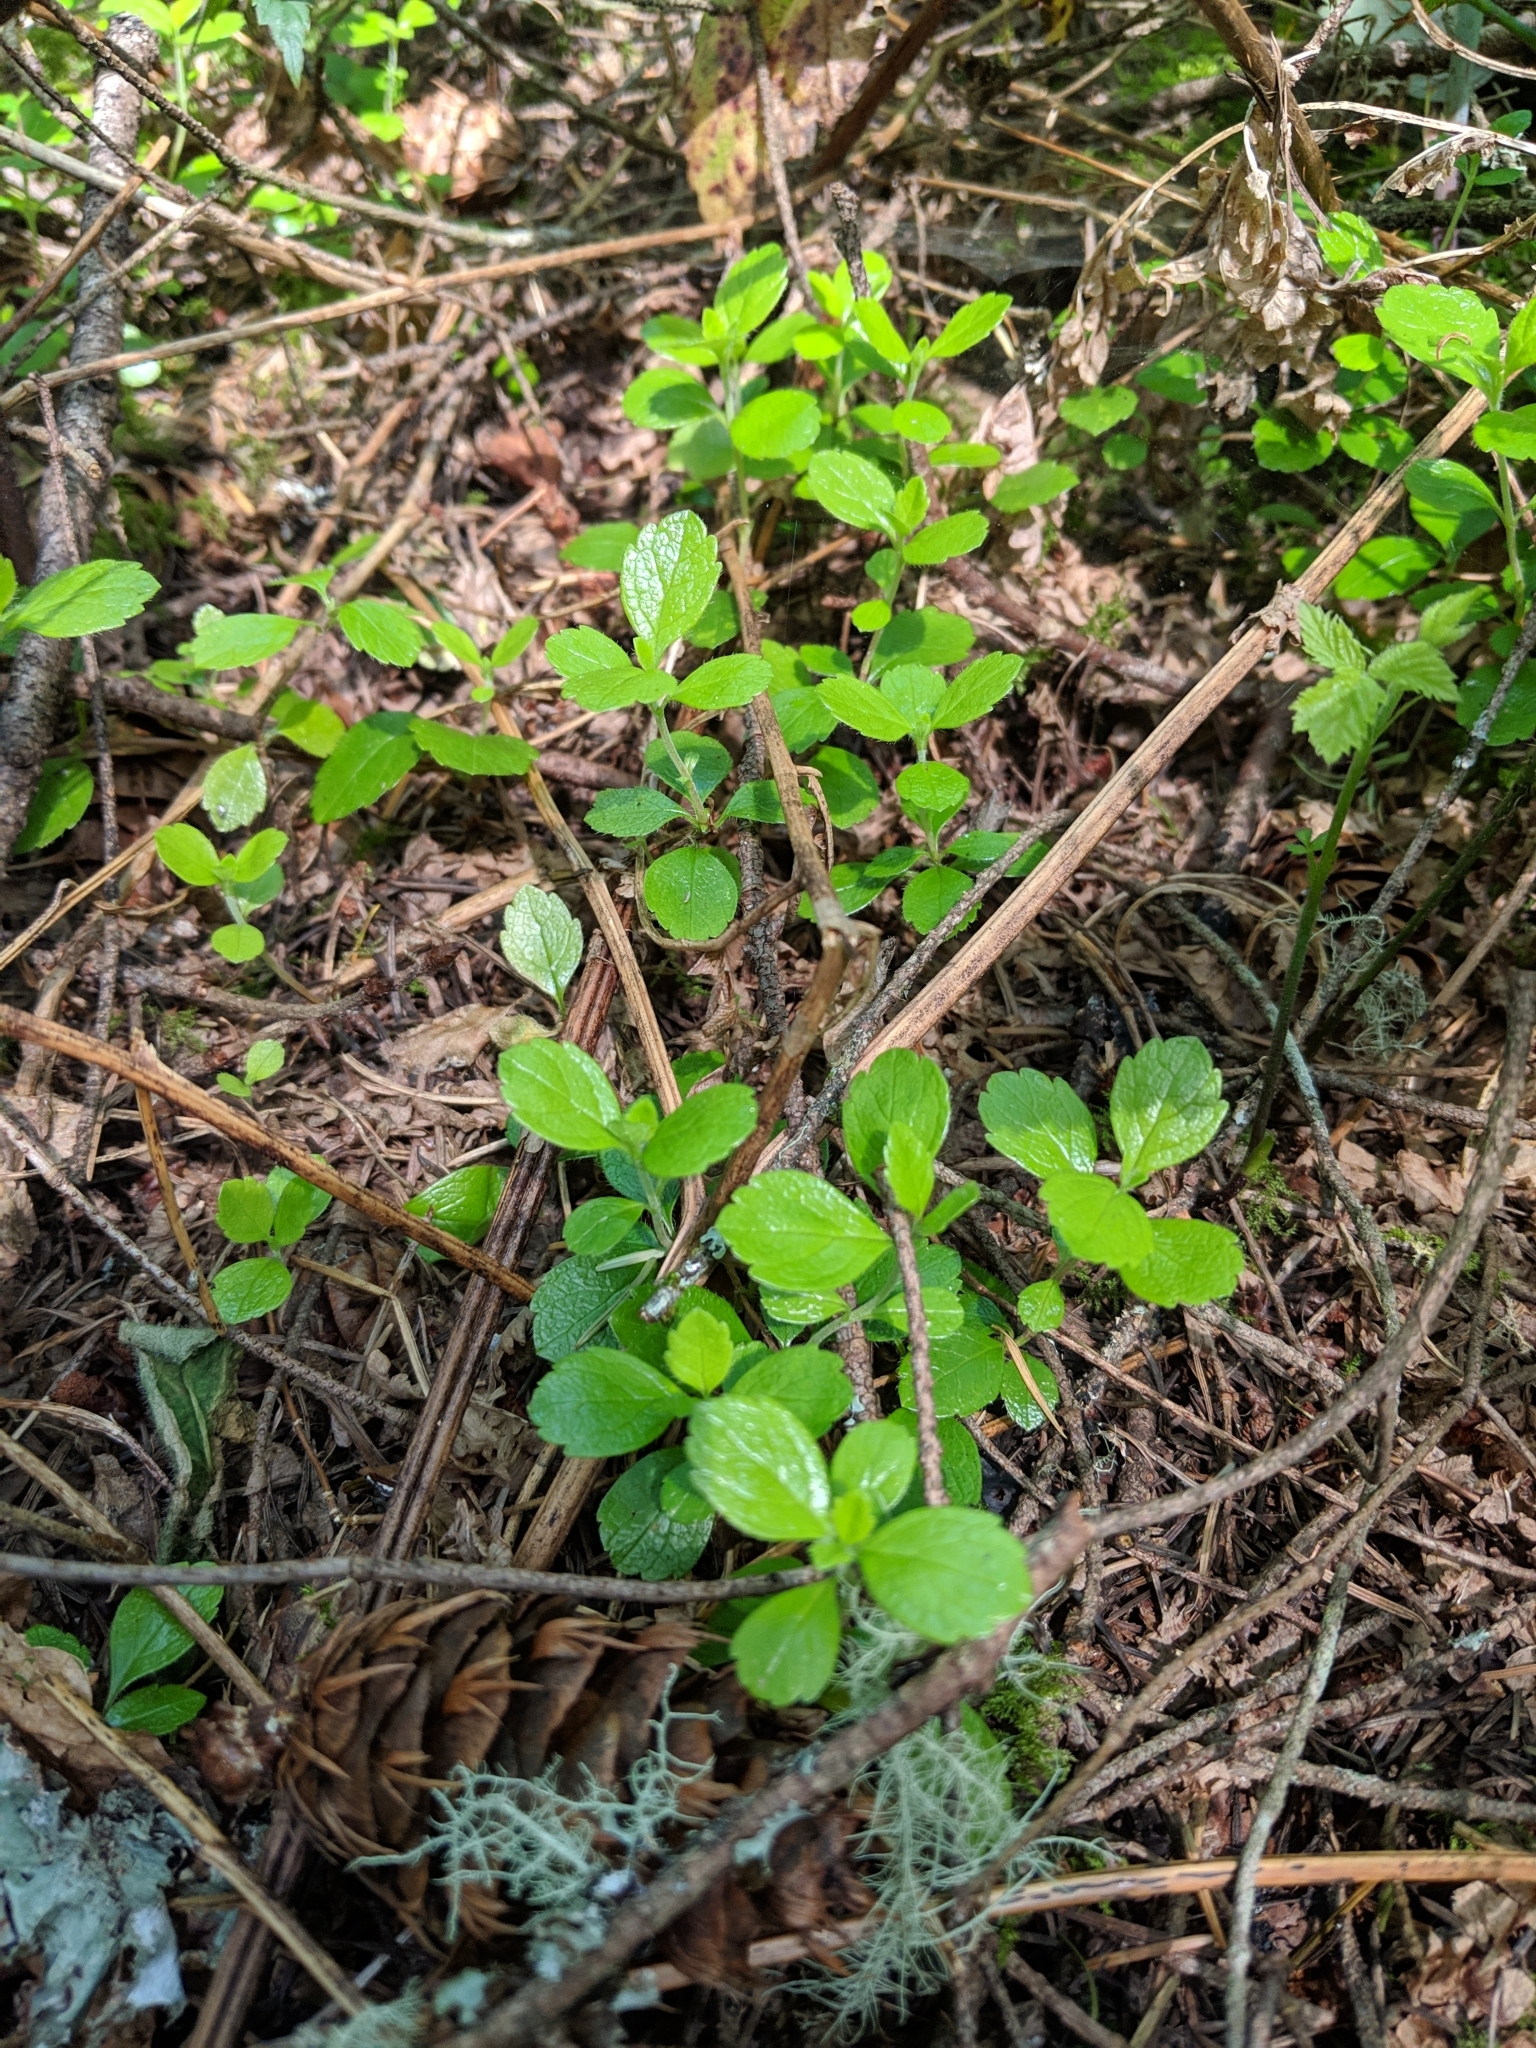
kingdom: Plantae
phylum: Tracheophyta
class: Magnoliopsida
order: Dipsacales
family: Caprifoliaceae
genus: Linnaea
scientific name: Linnaea borealis
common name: Twinflower
